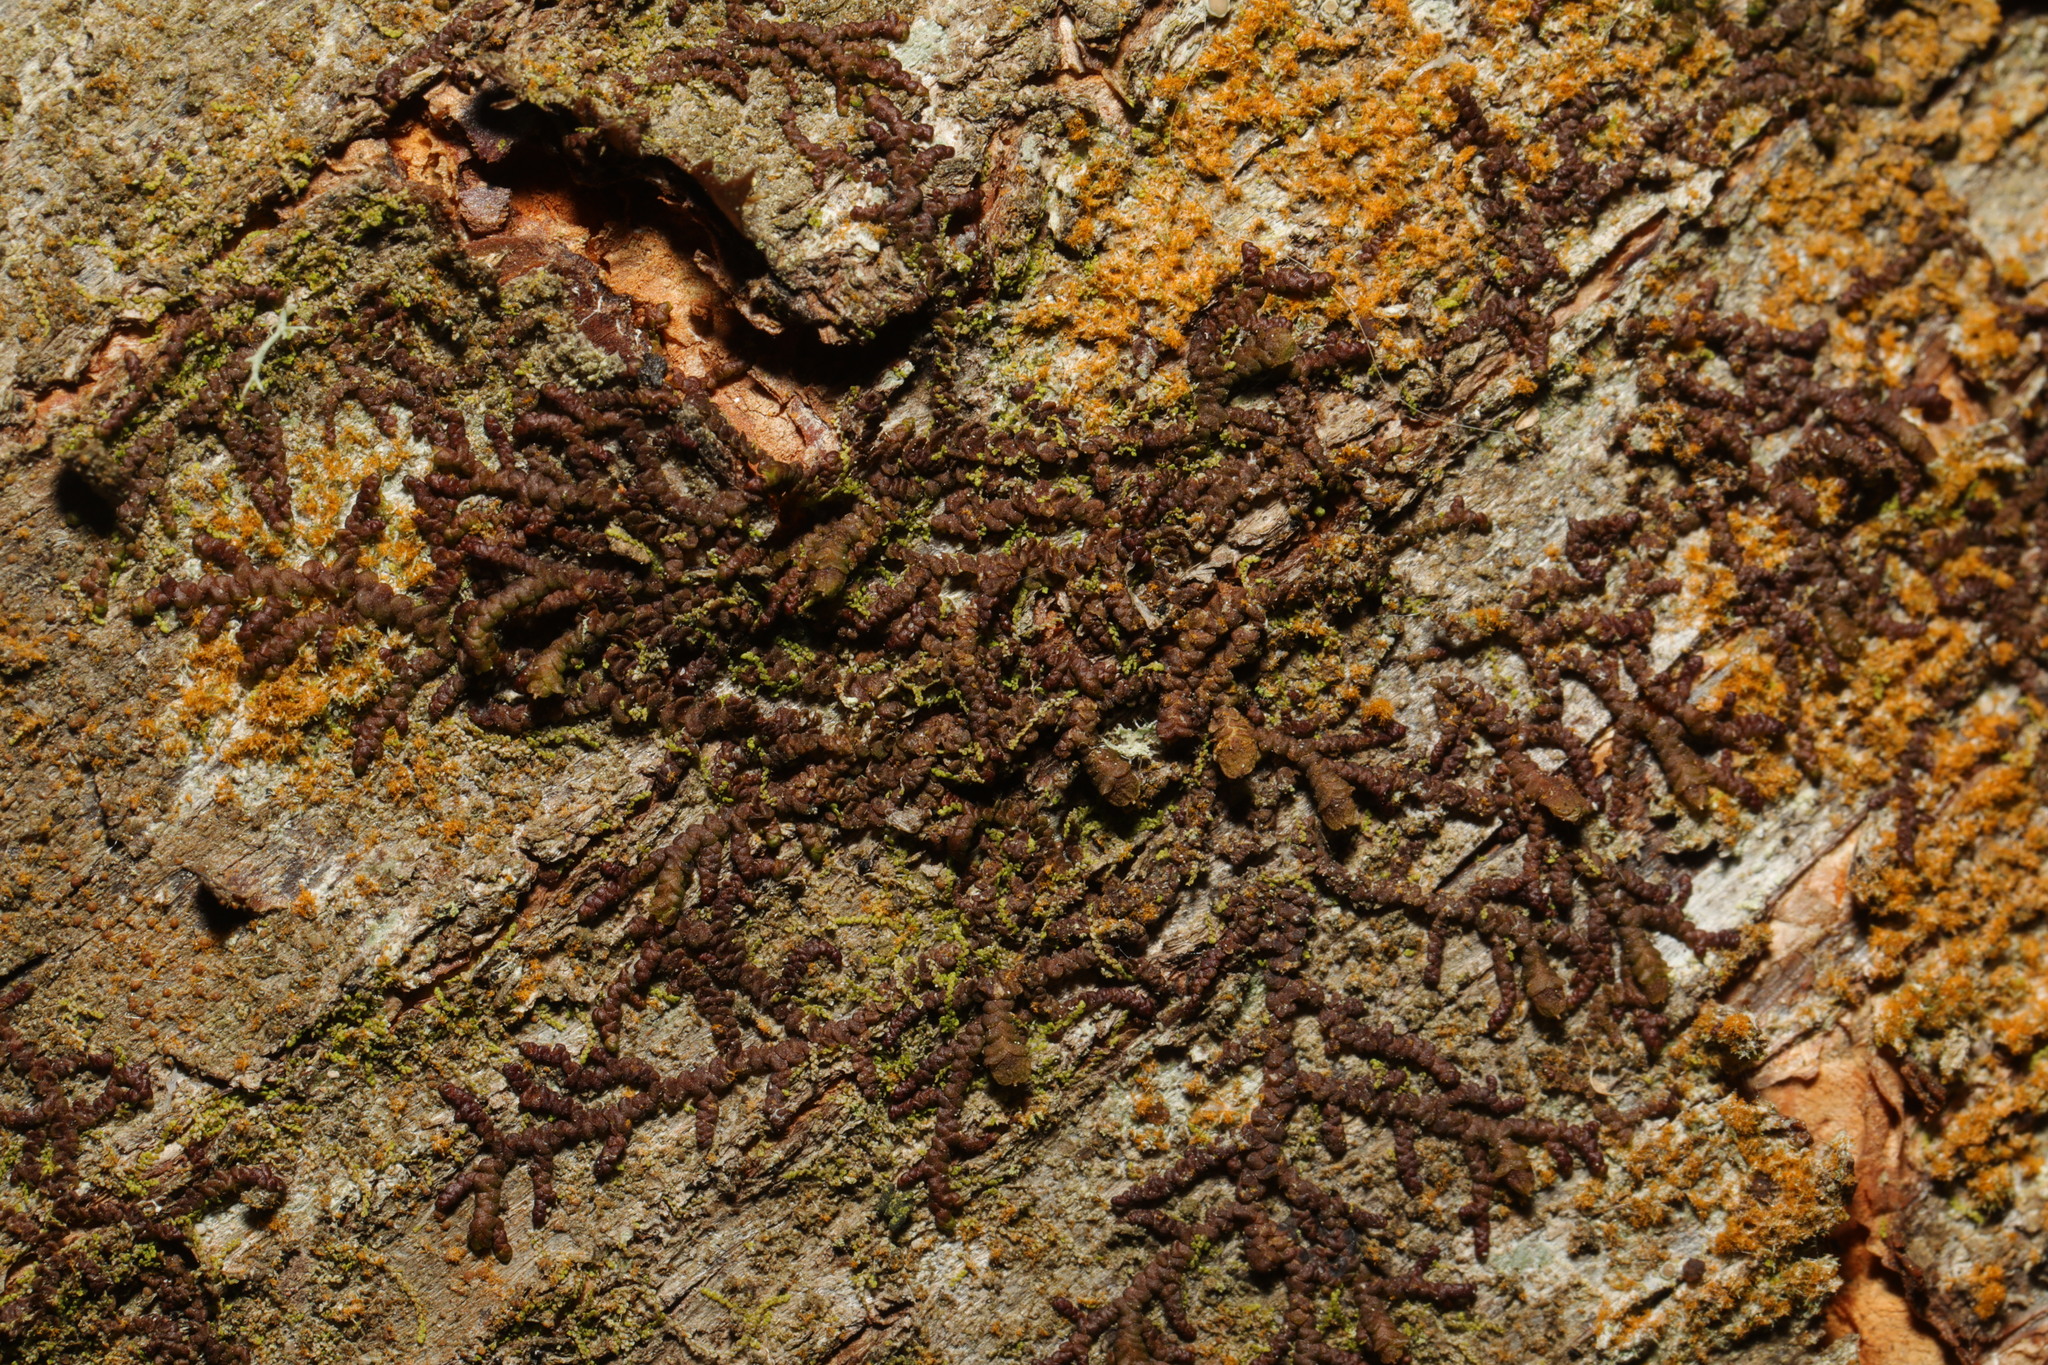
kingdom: Plantae
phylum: Marchantiophyta
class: Jungermanniopsida
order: Porellales
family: Frullaniaceae
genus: Frullania
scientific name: Frullania dilatata
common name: Dilated scalewort
